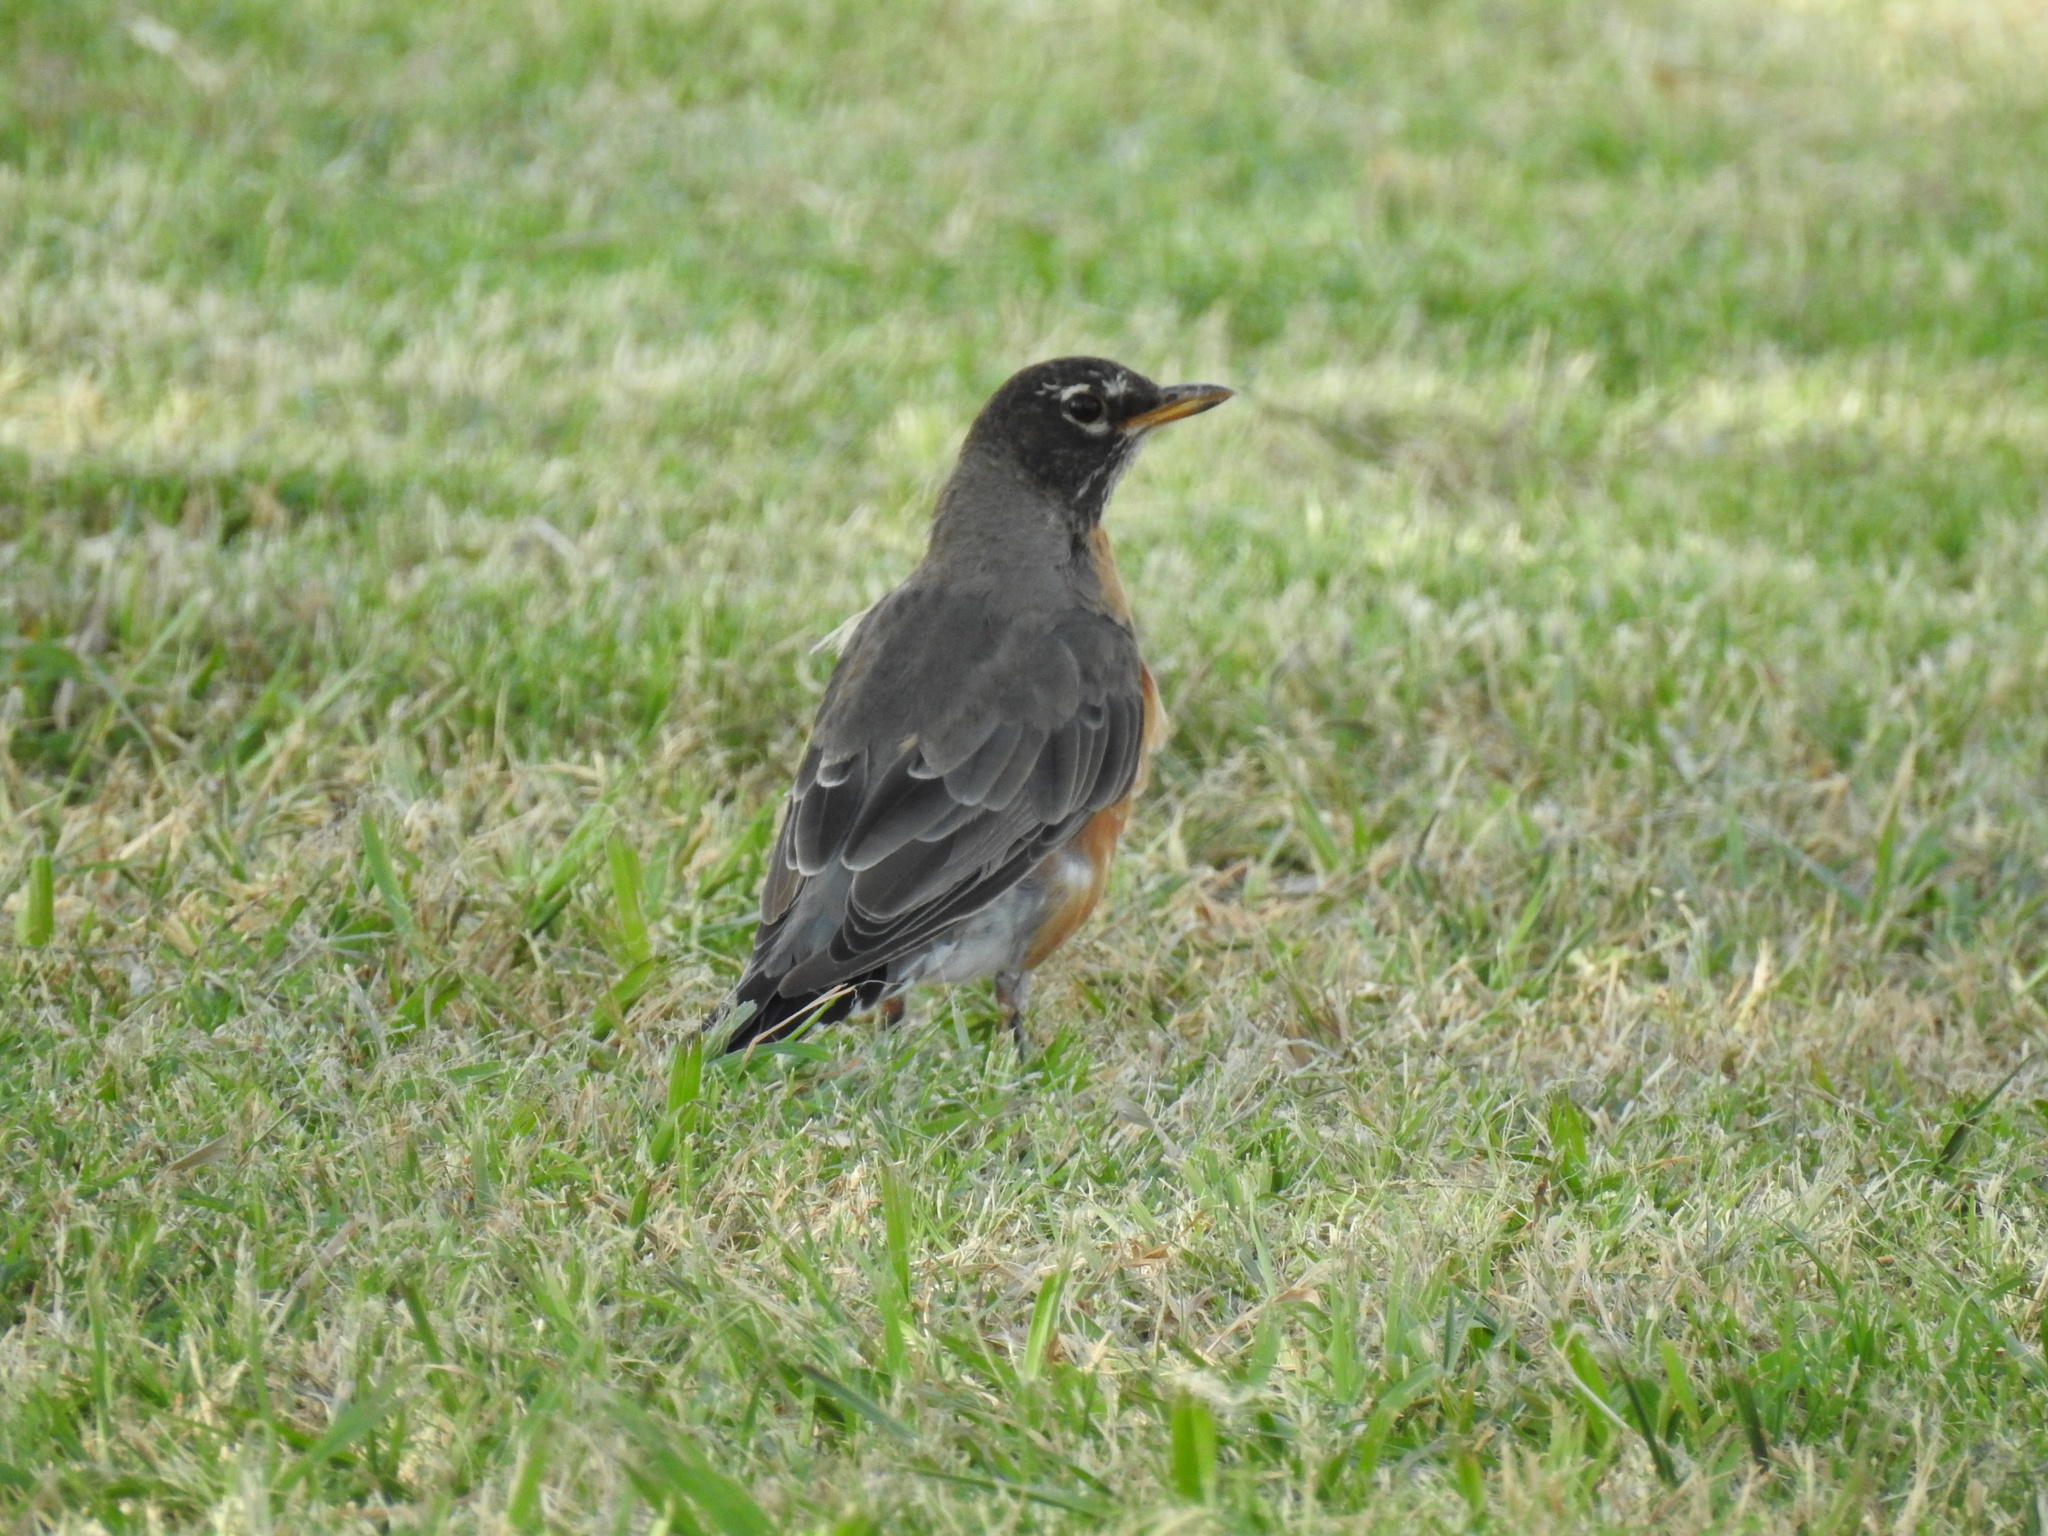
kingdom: Animalia
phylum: Chordata
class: Aves
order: Passeriformes
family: Turdidae
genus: Turdus
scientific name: Turdus migratorius
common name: American robin
